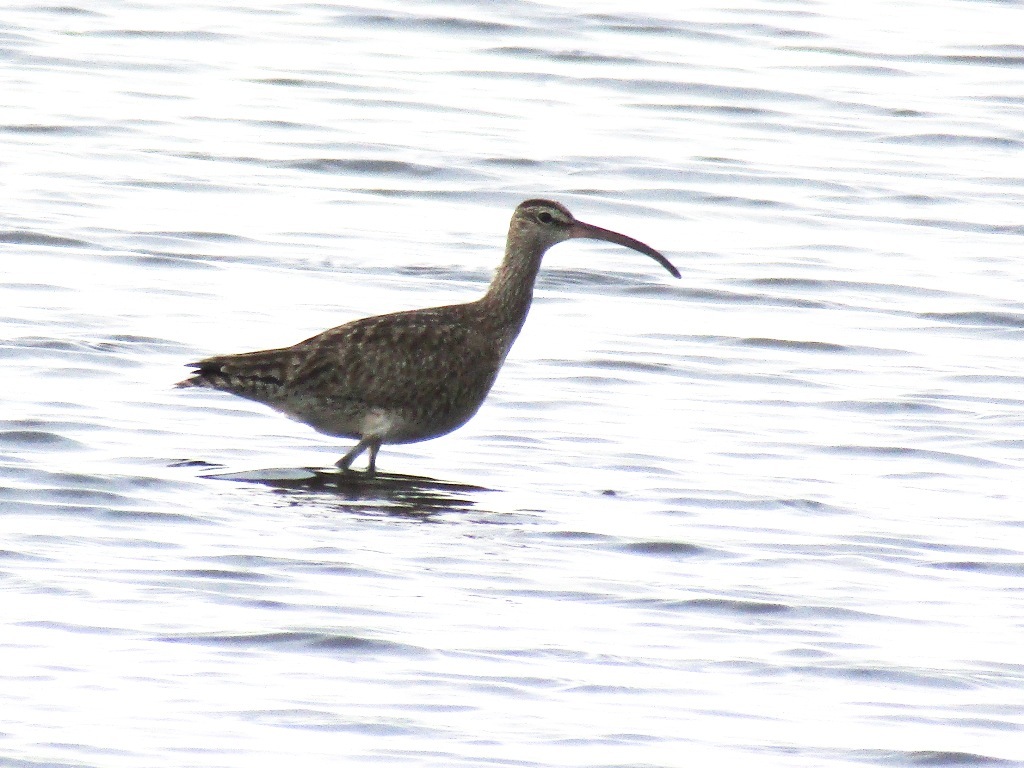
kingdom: Animalia
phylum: Chordata
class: Aves
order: Charadriiformes
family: Scolopacidae
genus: Numenius
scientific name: Numenius phaeopus
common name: Whimbrel
